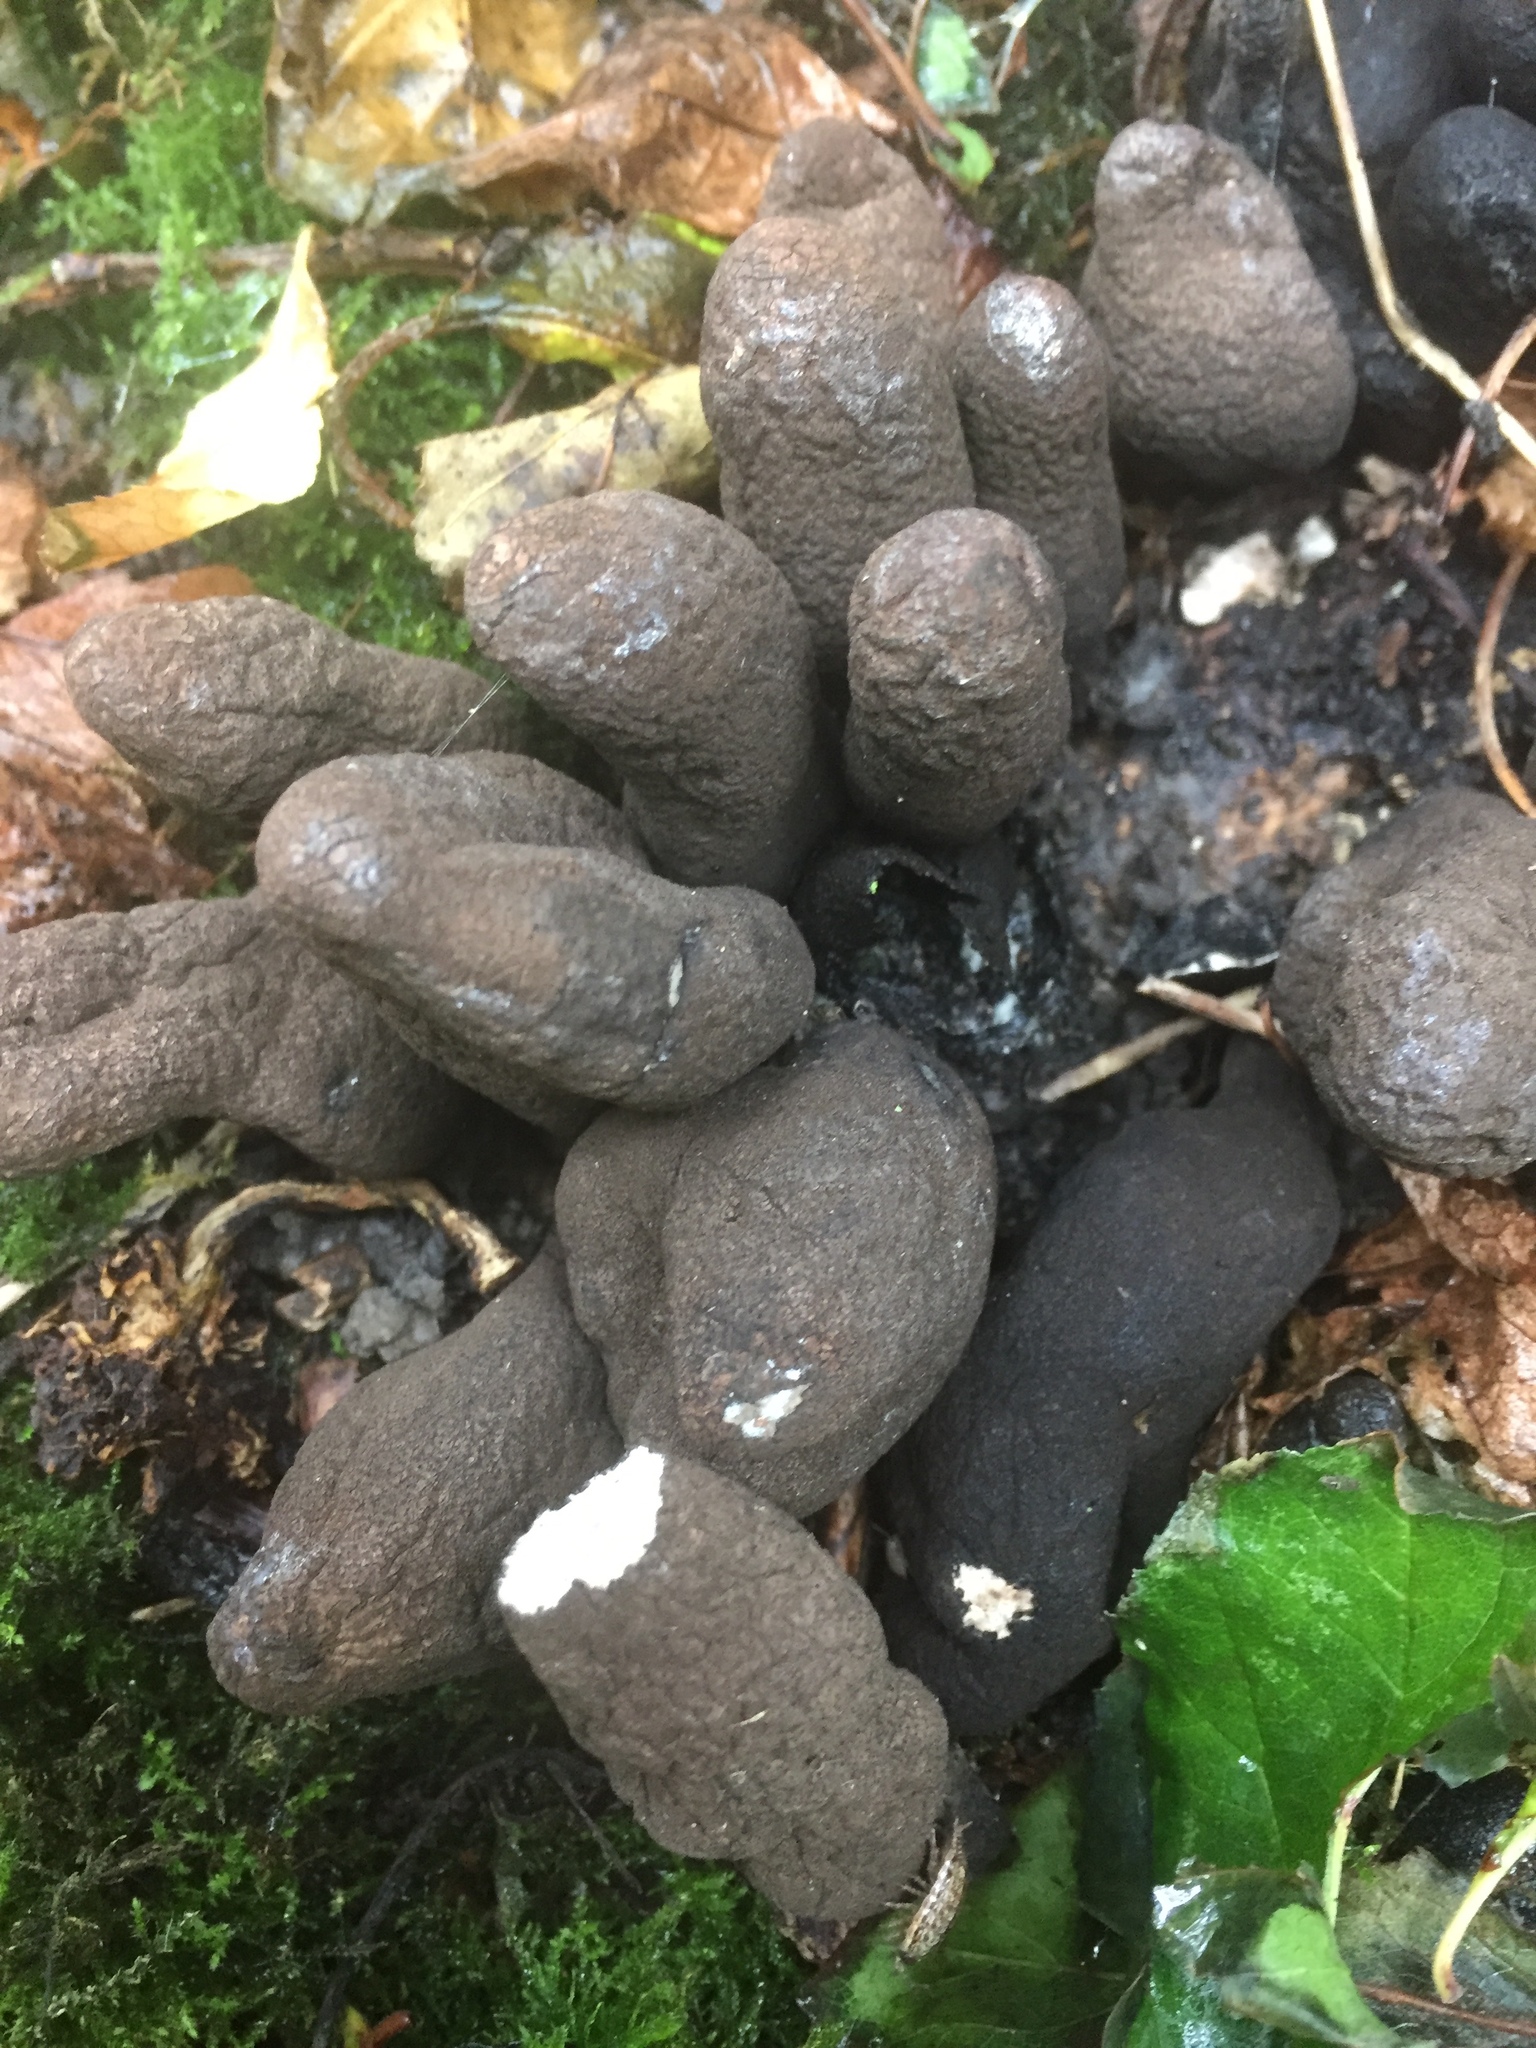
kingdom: Fungi
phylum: Ascomycota
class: Sordariomycetes
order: Xylariales
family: Xylariaceae
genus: Xylaria
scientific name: Xylaria polymorpha
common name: Dead man's fingers
